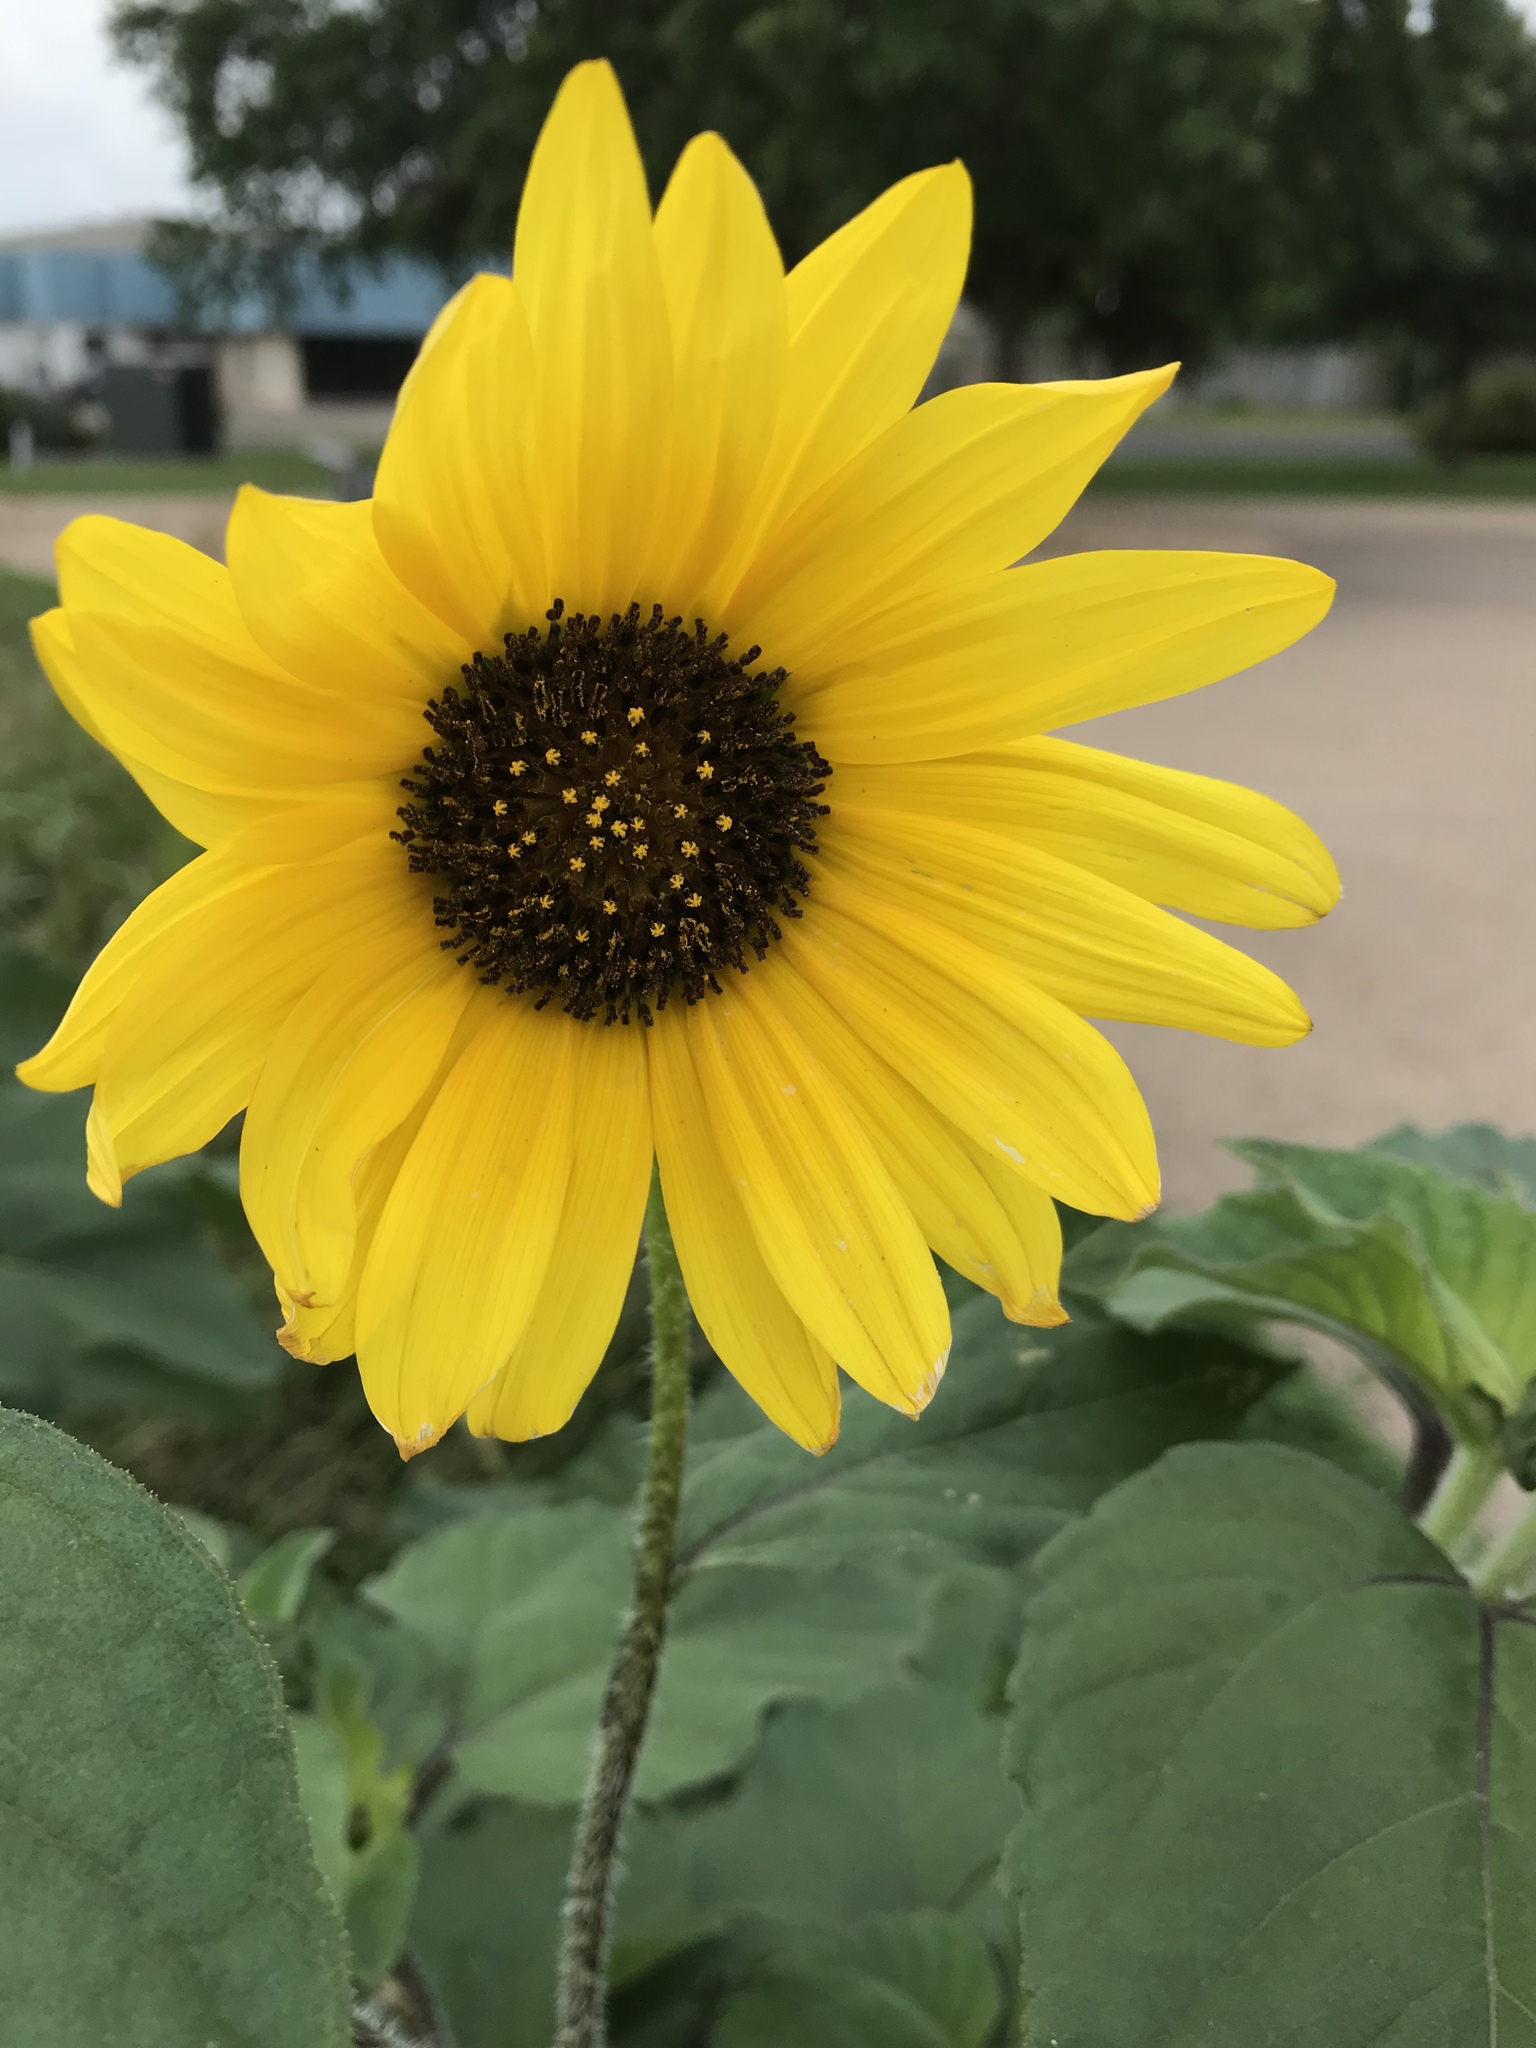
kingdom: Plantae
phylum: Tracheophyta
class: Magnoliopsida
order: Asterales
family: Asteraceae
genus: Helianthus
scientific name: Helianthus annuus
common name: Sunflower
